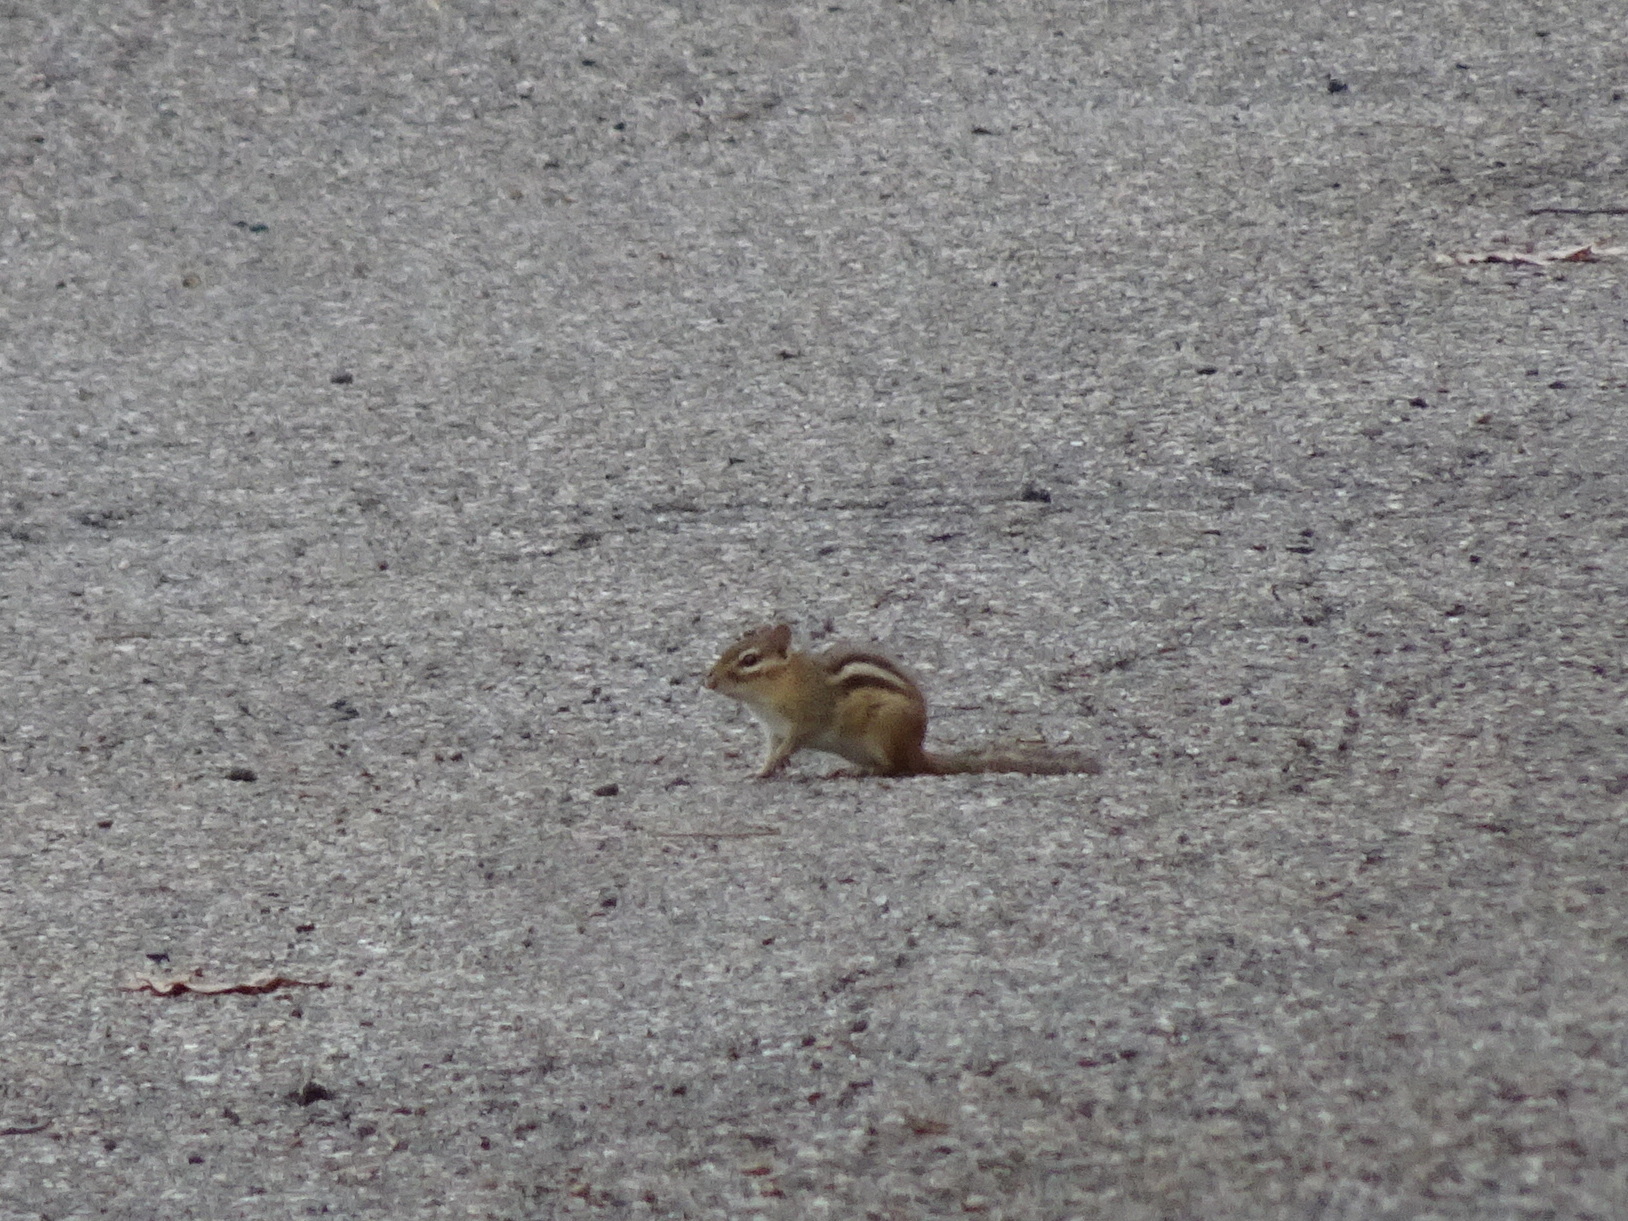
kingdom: Animalia
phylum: Chordata
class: Mammalia
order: Rodentia
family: Sciuridae
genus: Tamias
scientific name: Tamias striatus
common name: Eastern chipmunk
